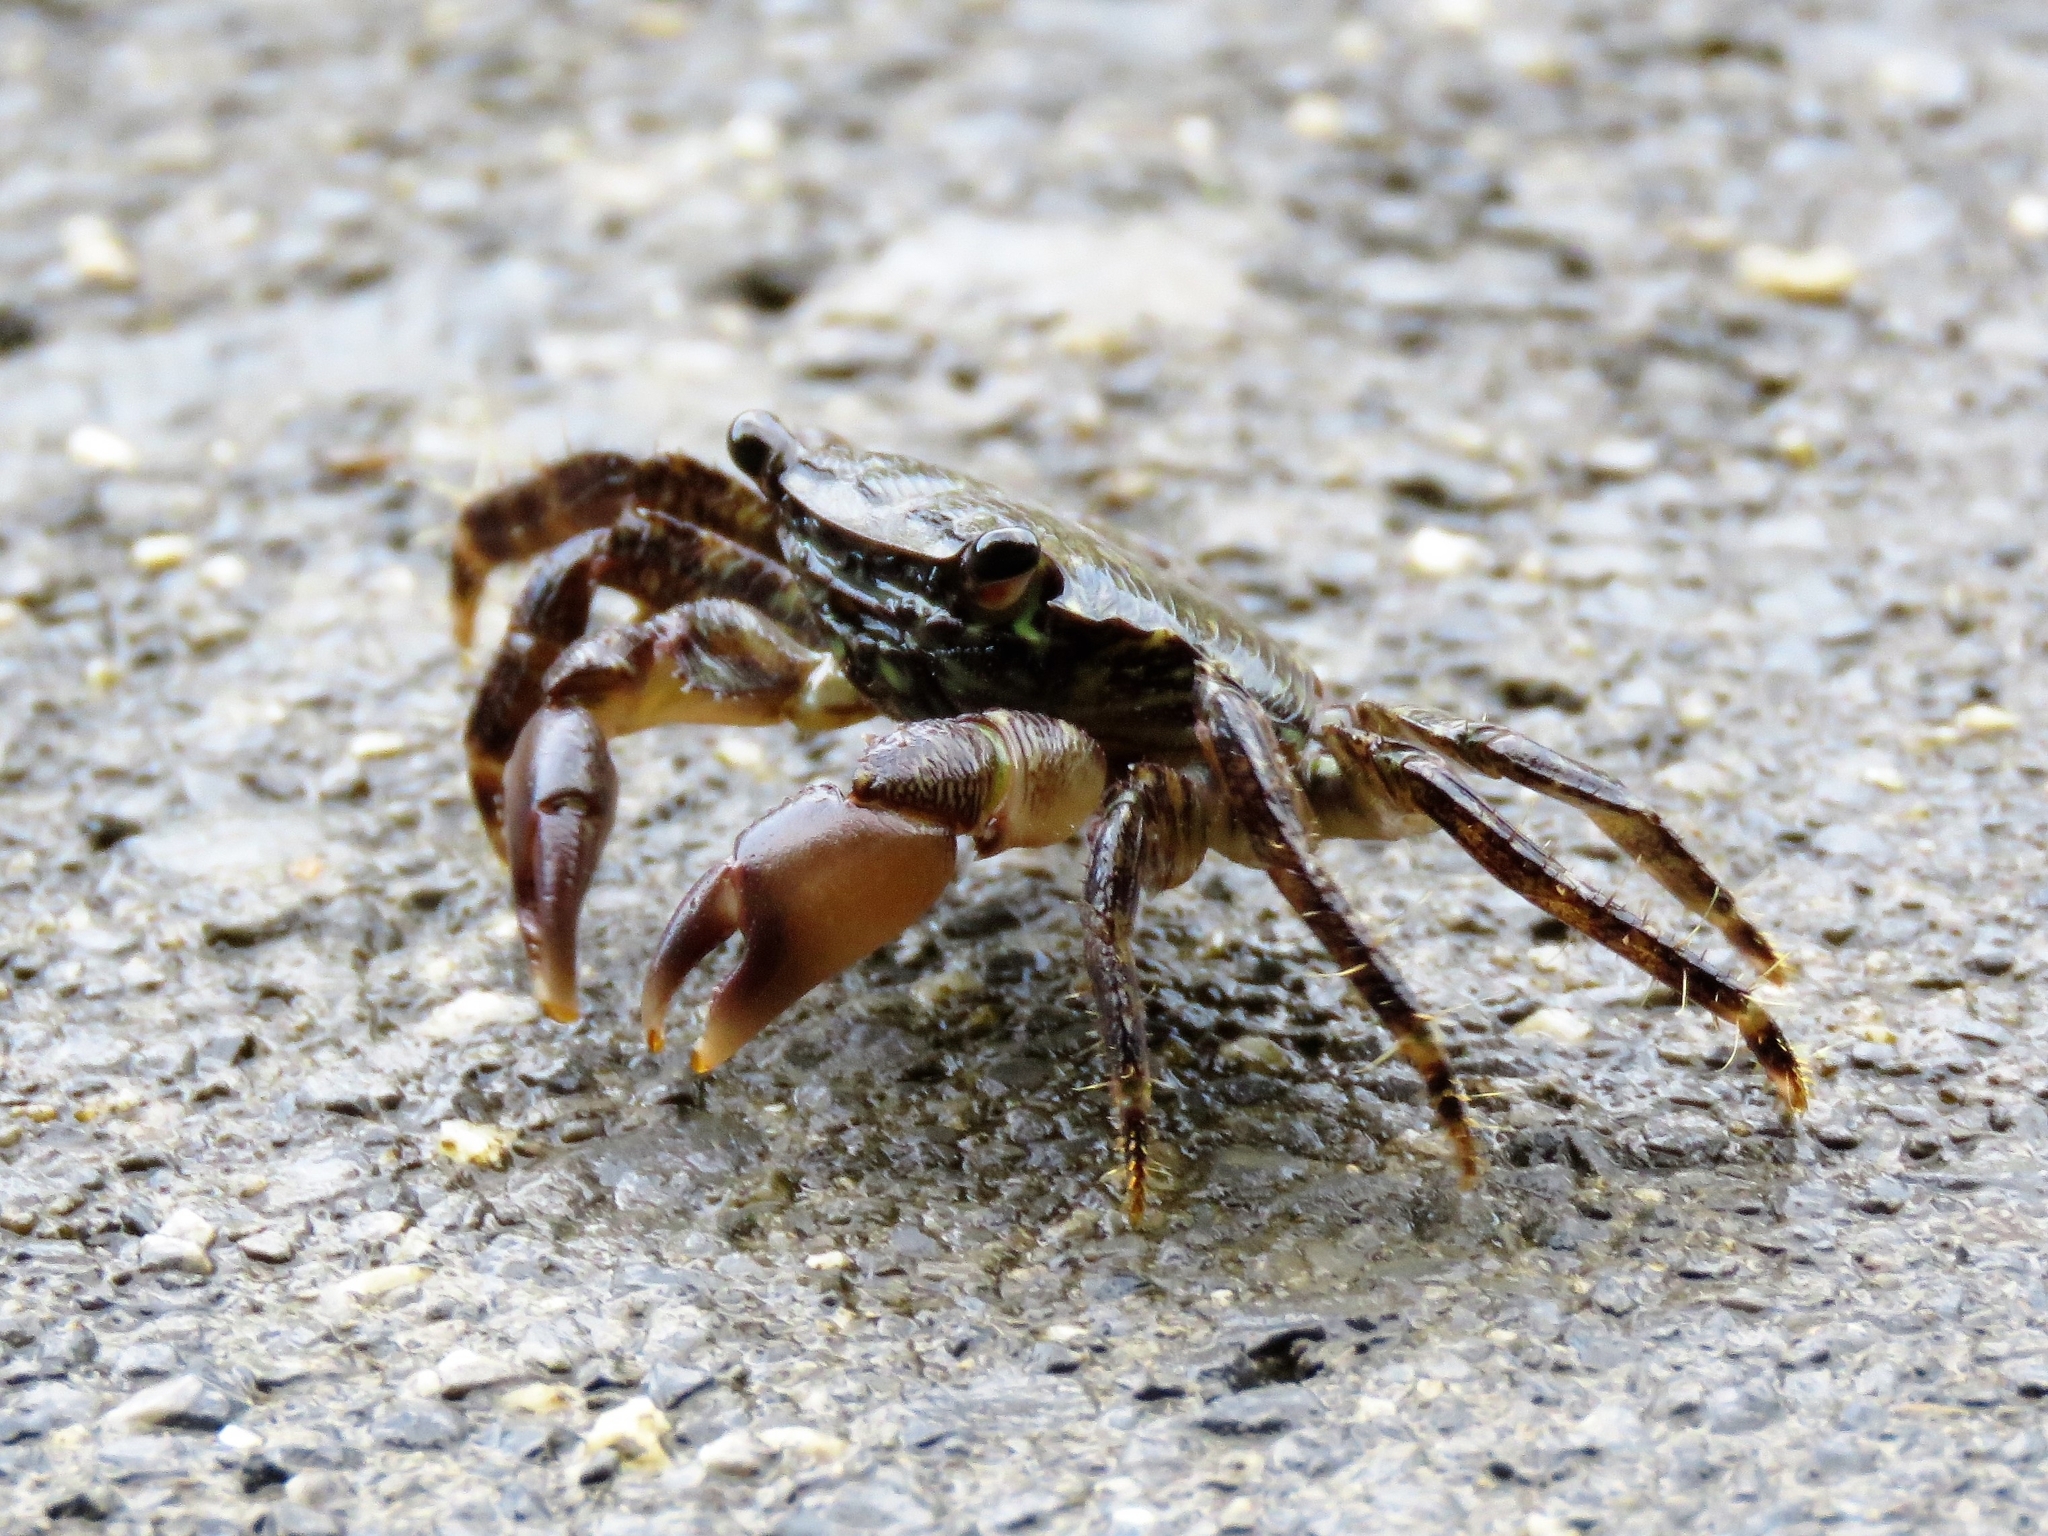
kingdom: Animalia
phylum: Arthropoda
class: Malacostraca
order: Decapoda
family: Grapsidae
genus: Pachygrapsus
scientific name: Pachygrapsus marmoratus
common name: Marbled rock crab
